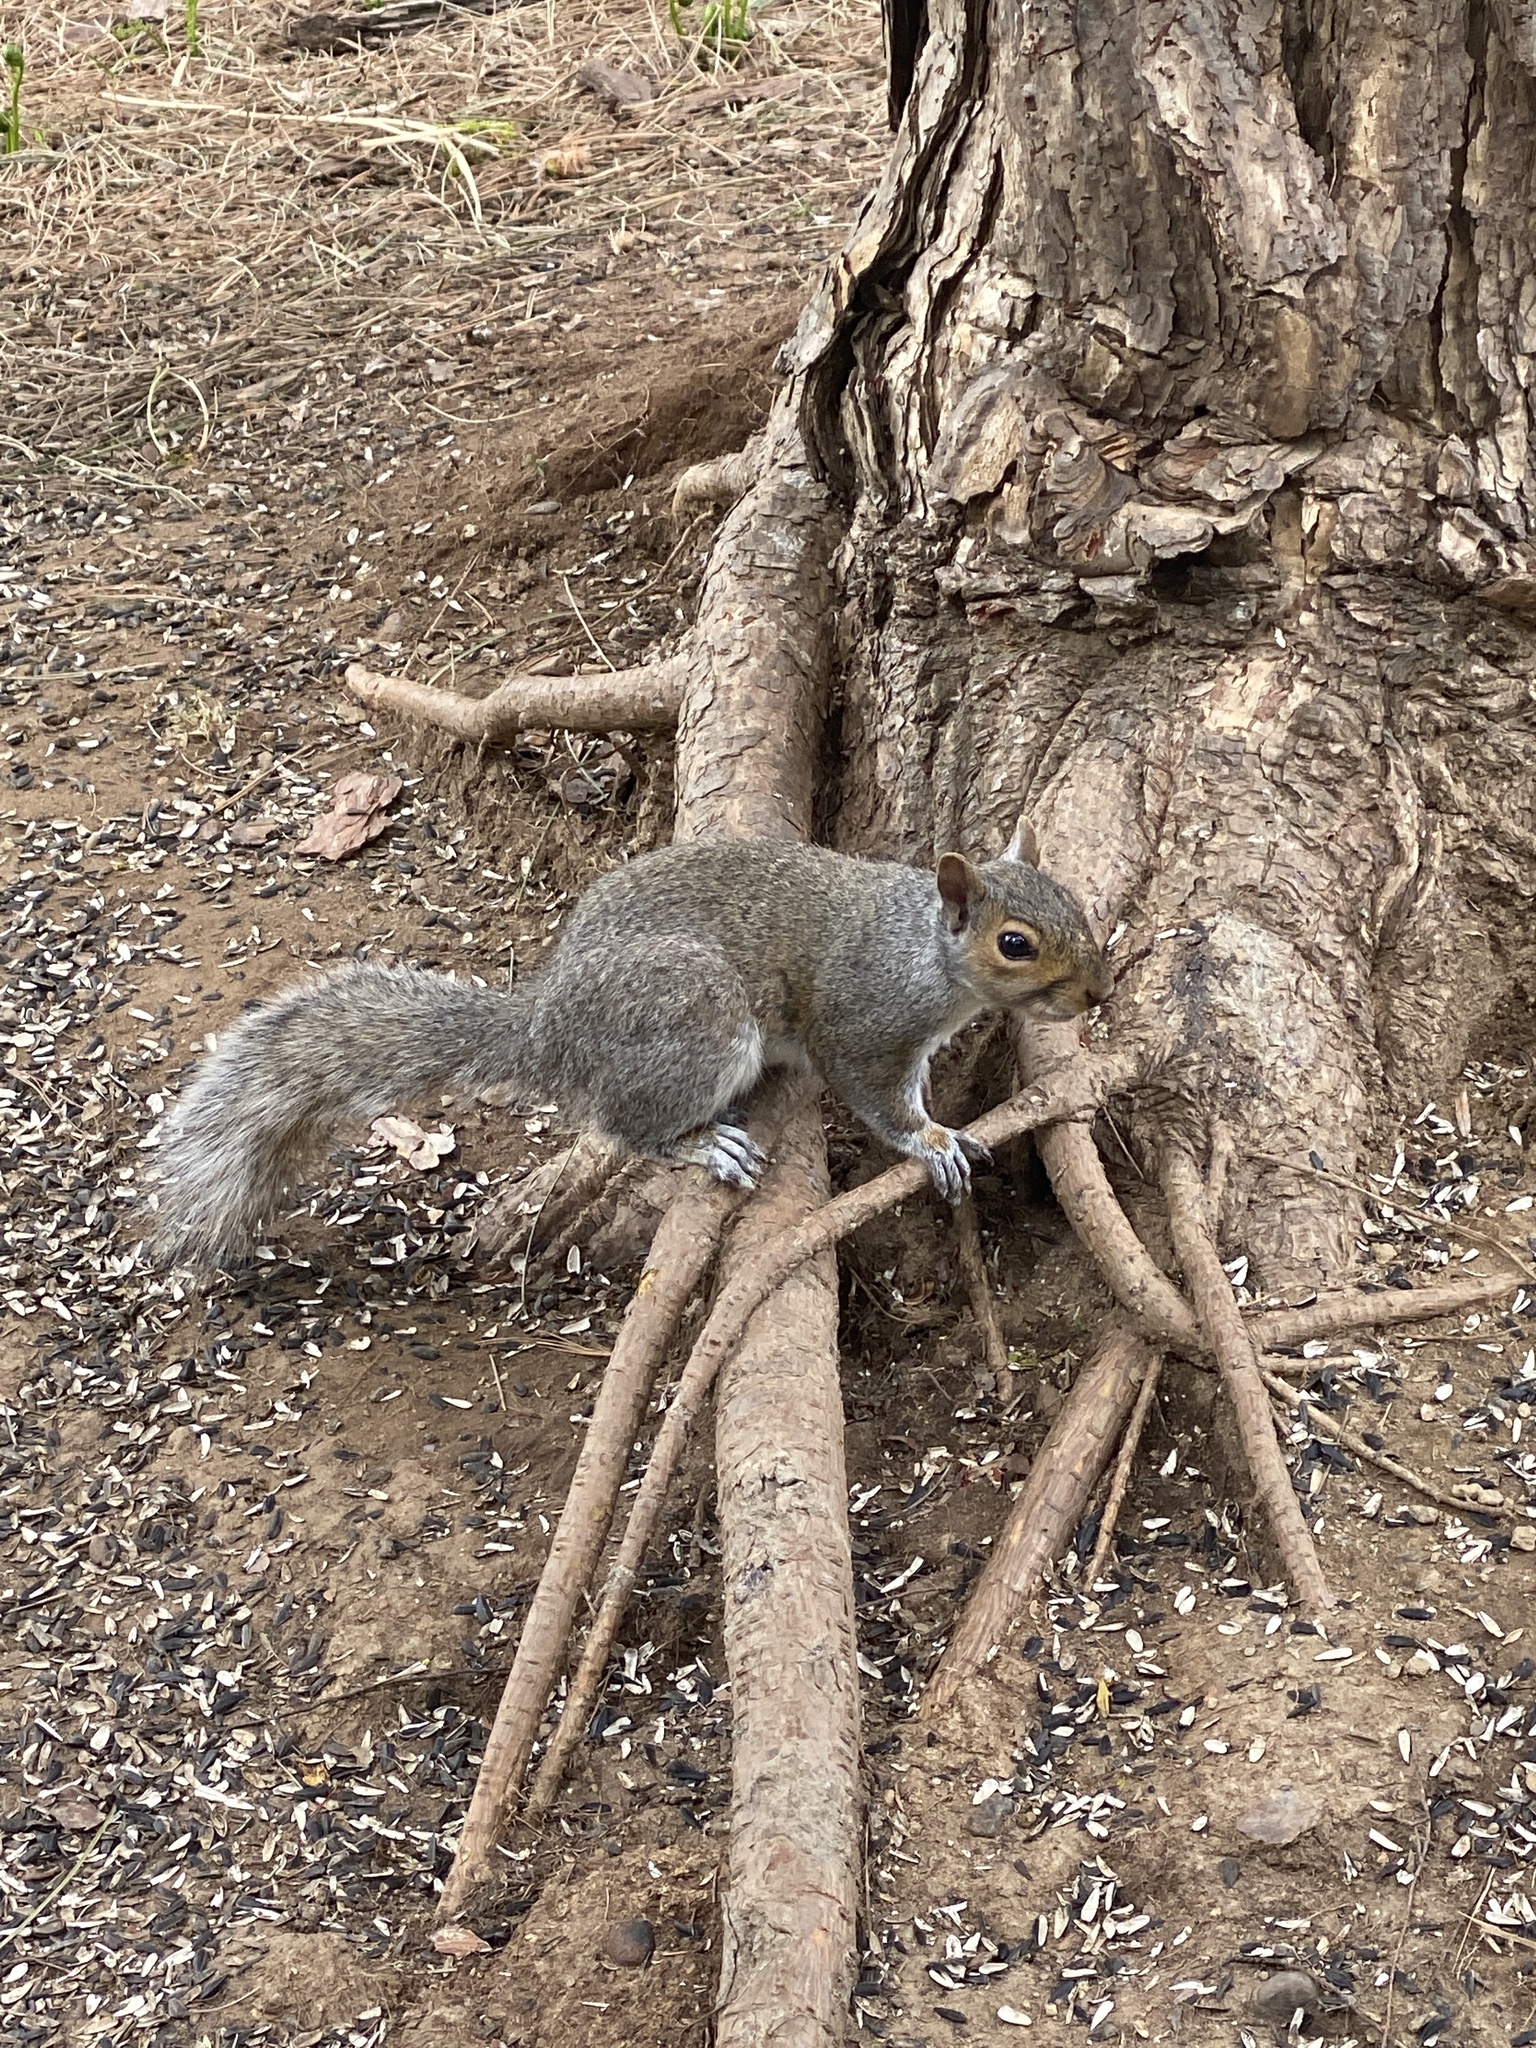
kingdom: Animalia
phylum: Chordata
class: Mammalia
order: Rodentia
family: Sciuridae
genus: Sciurus
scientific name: Sciurus carolinensis
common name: Eastern gray squirrel
